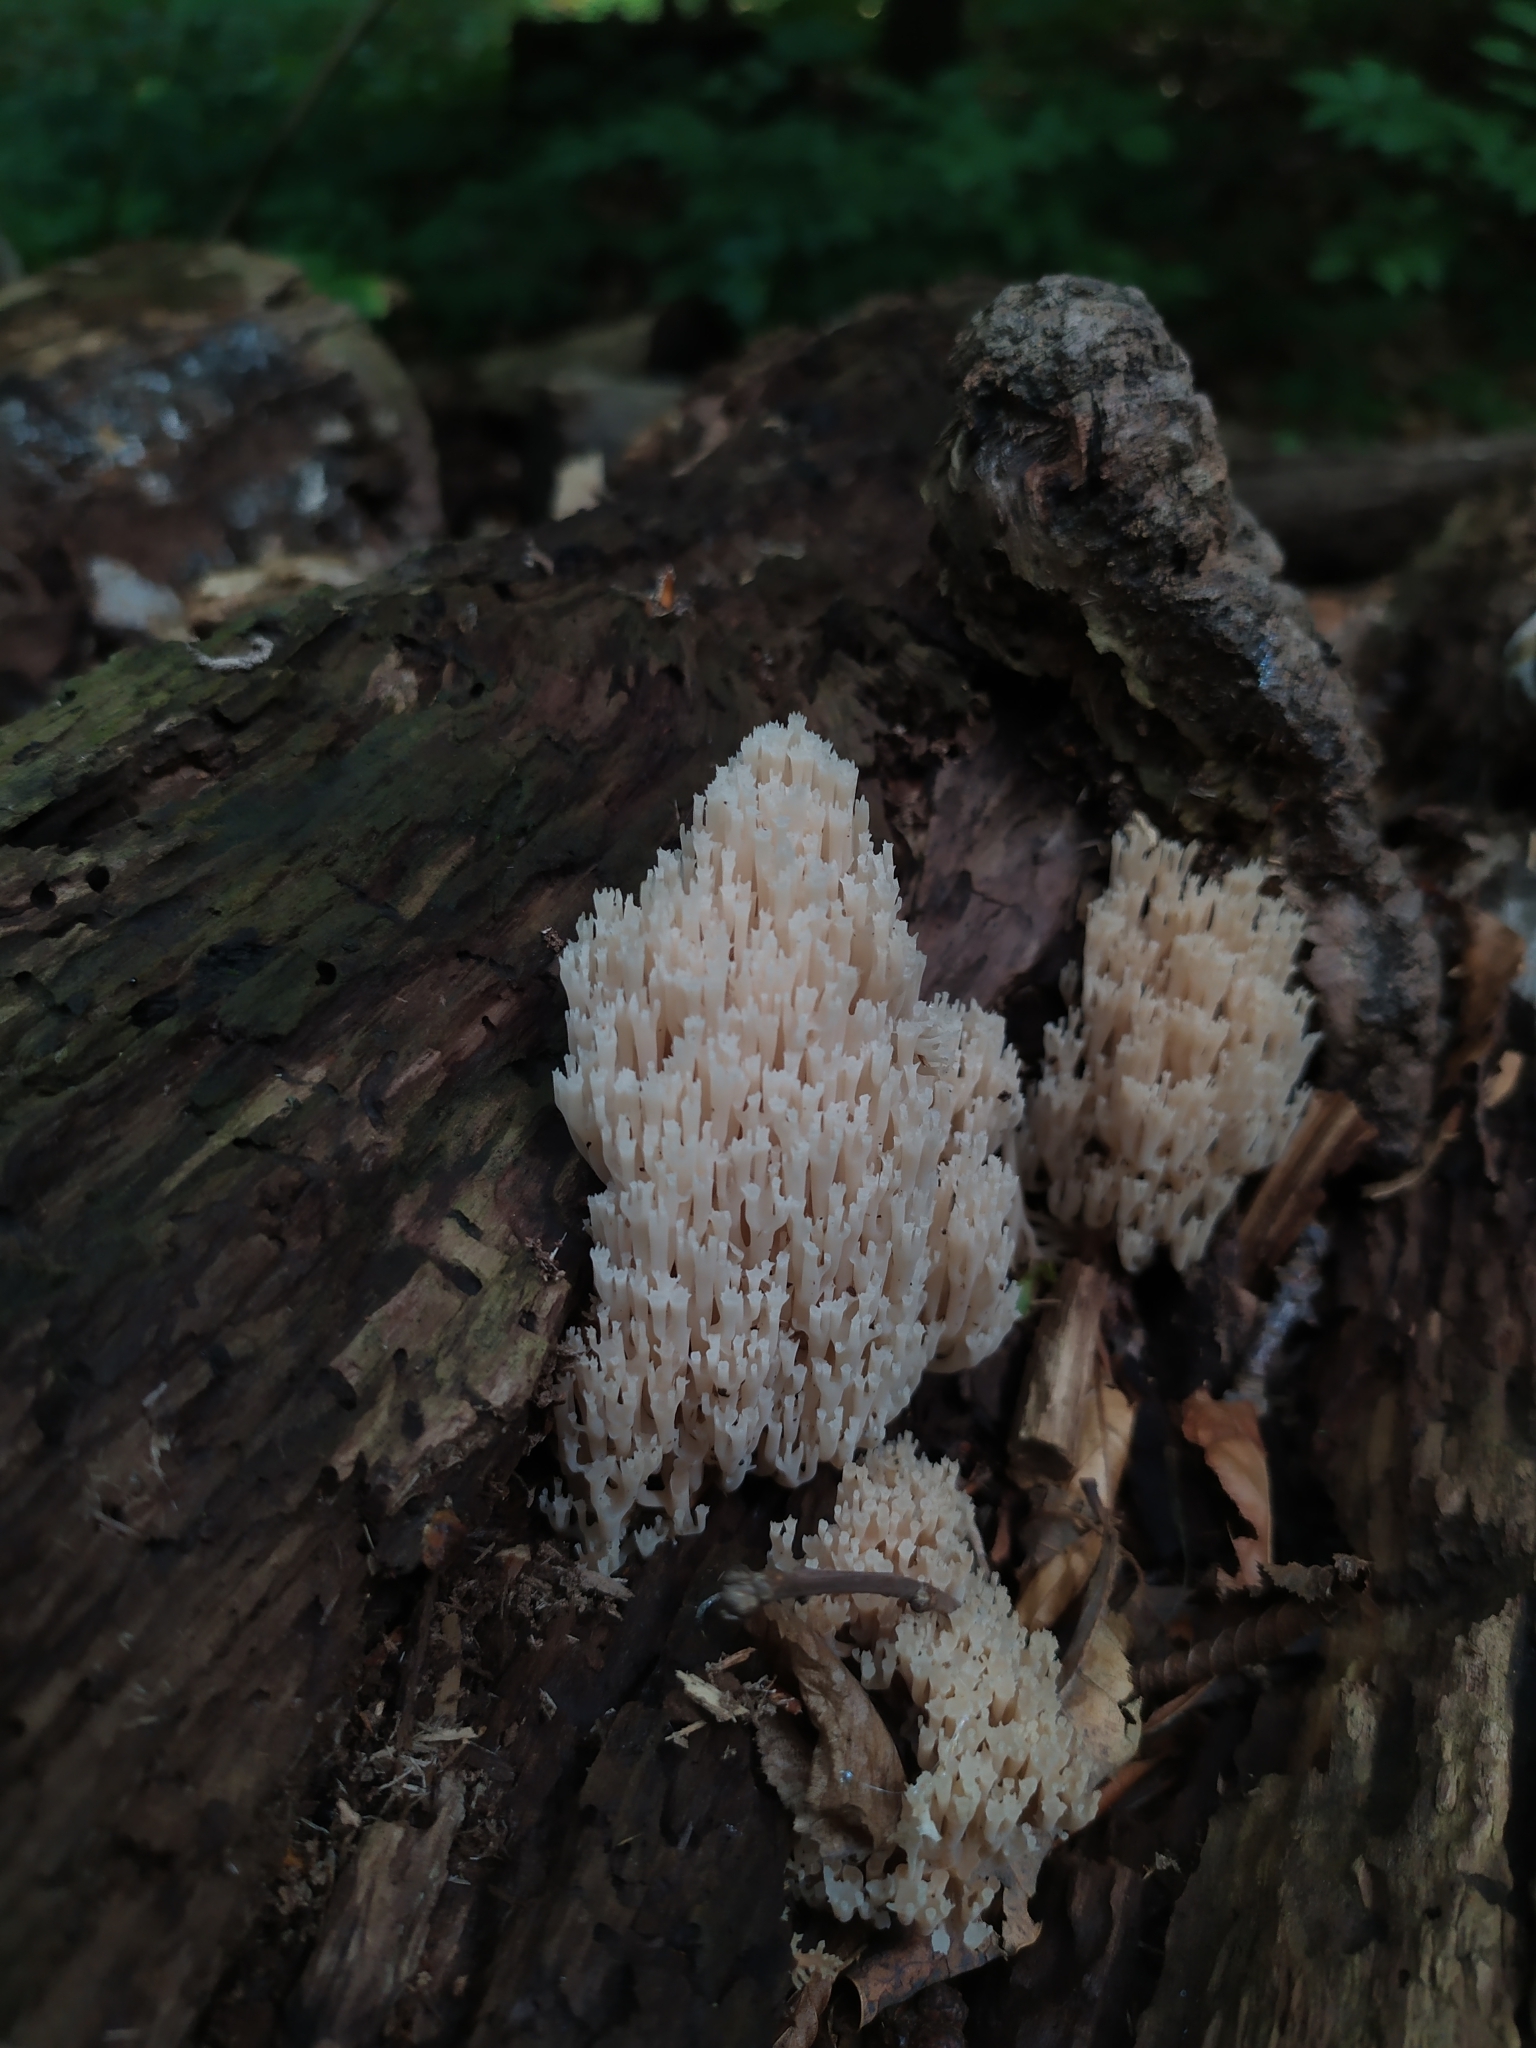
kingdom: Fungi
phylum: Basidiomycota
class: Agaricomycetes
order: Russulales
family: Auriscalpiaceae
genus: Artomyces
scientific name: Artomyces pyxidatus
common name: Crown-tipped coral fungus
